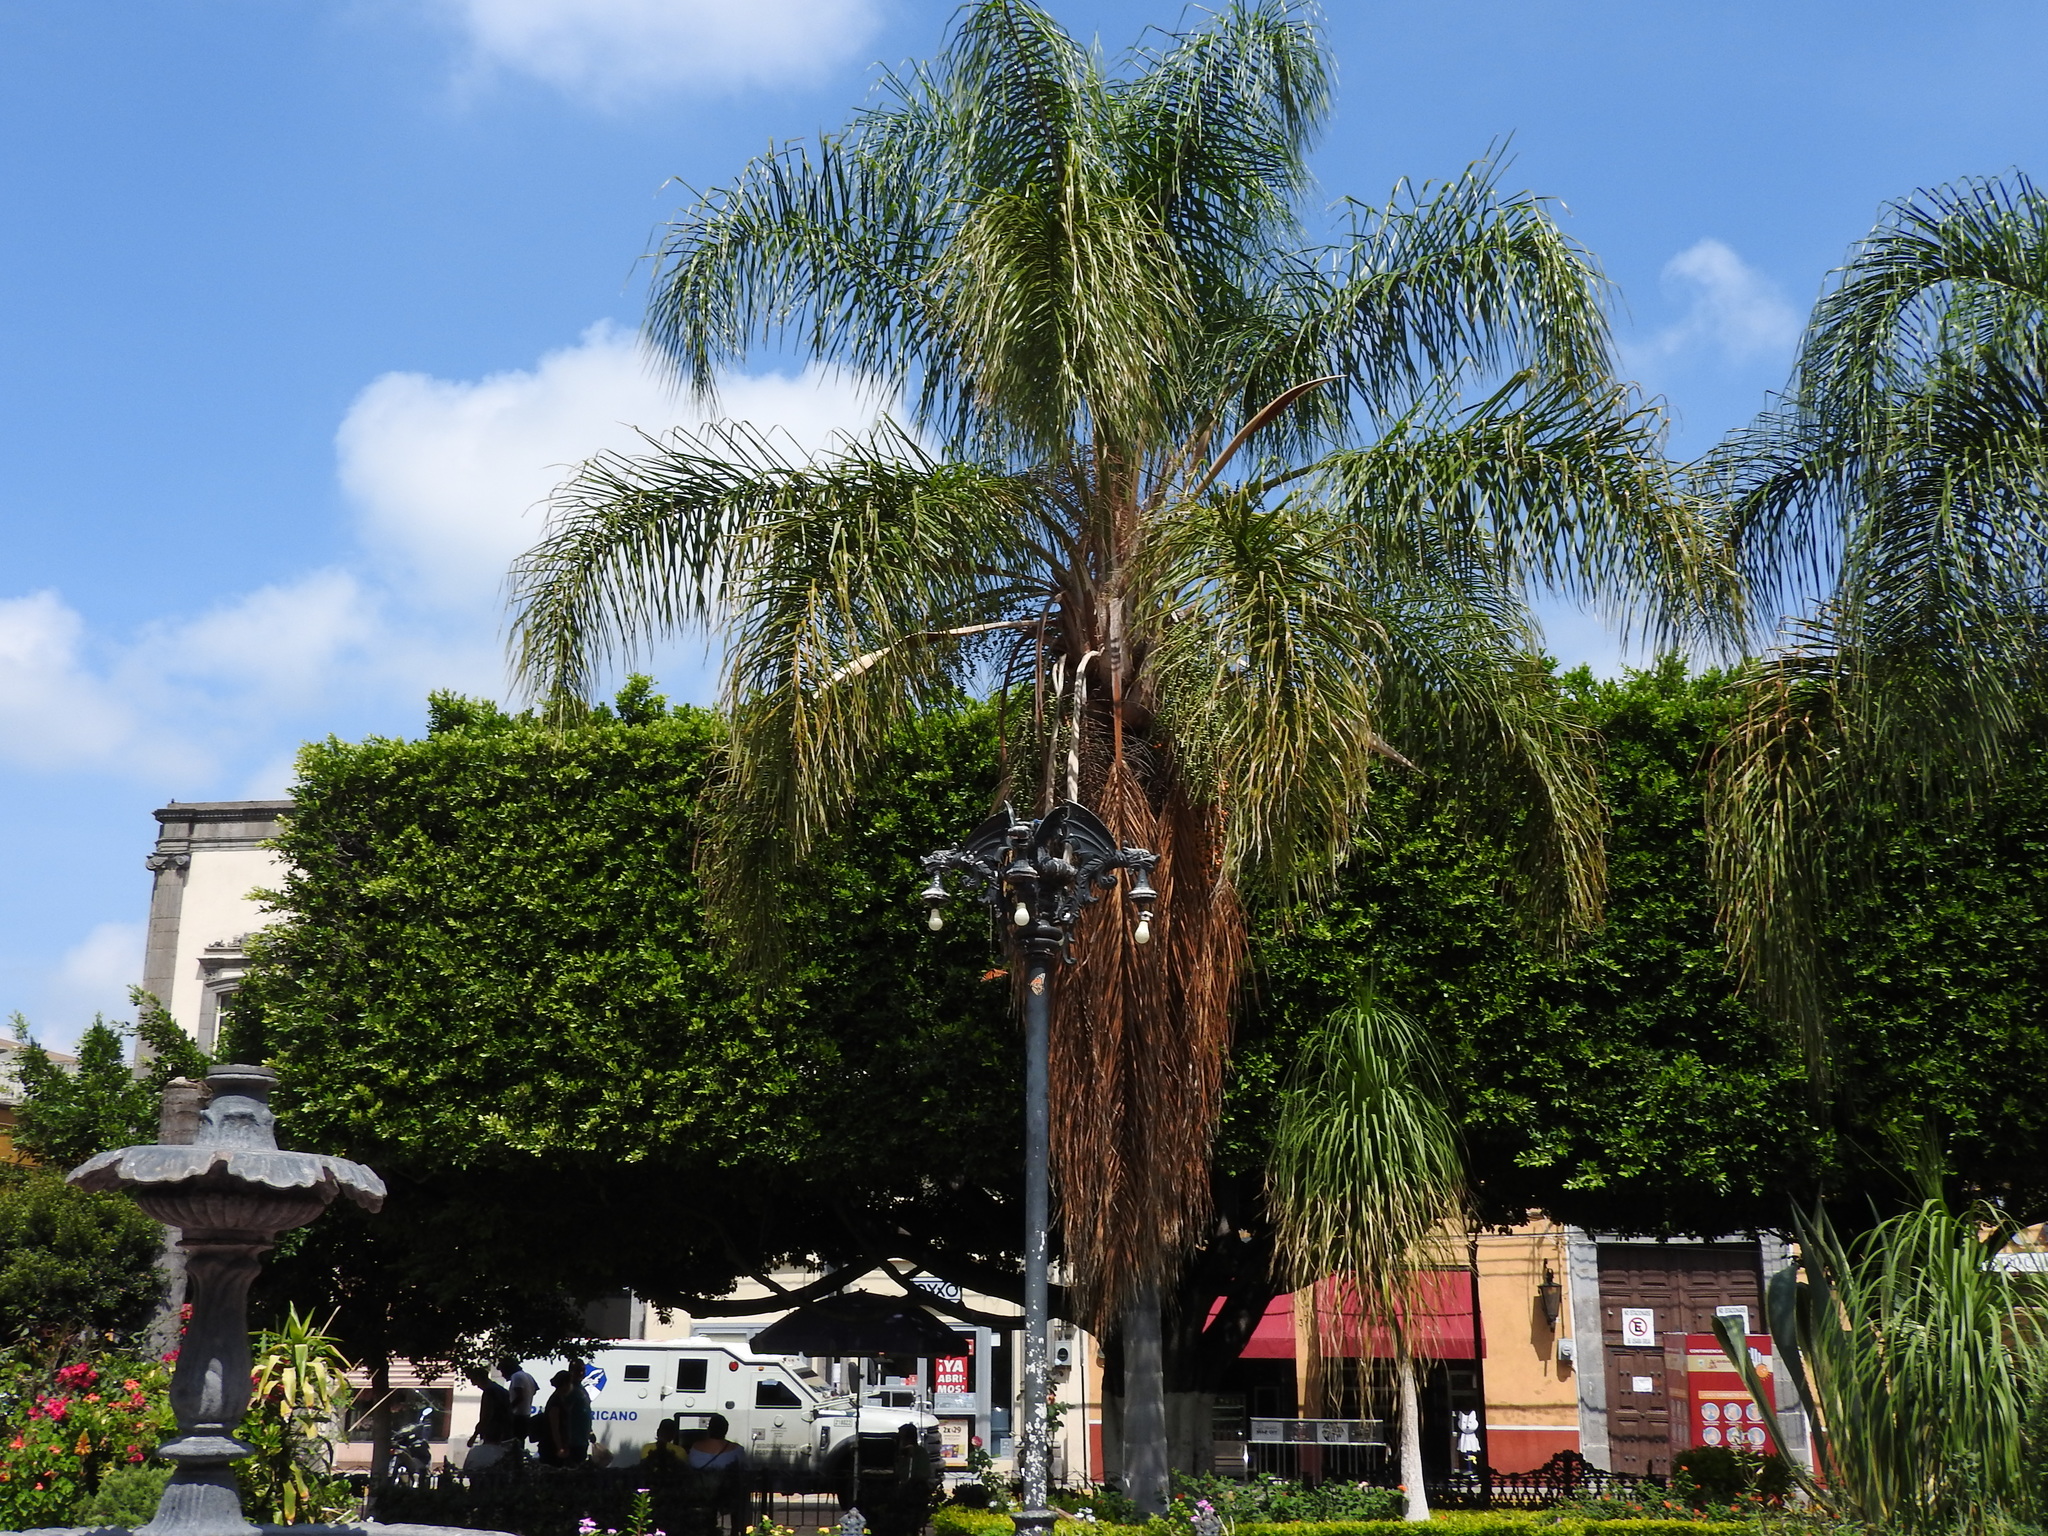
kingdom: Animalia
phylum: Arthropoda
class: Insecta
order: Lepidoptera
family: Nymphalidae
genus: Danaus
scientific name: Danaus plexippus
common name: Monarch
